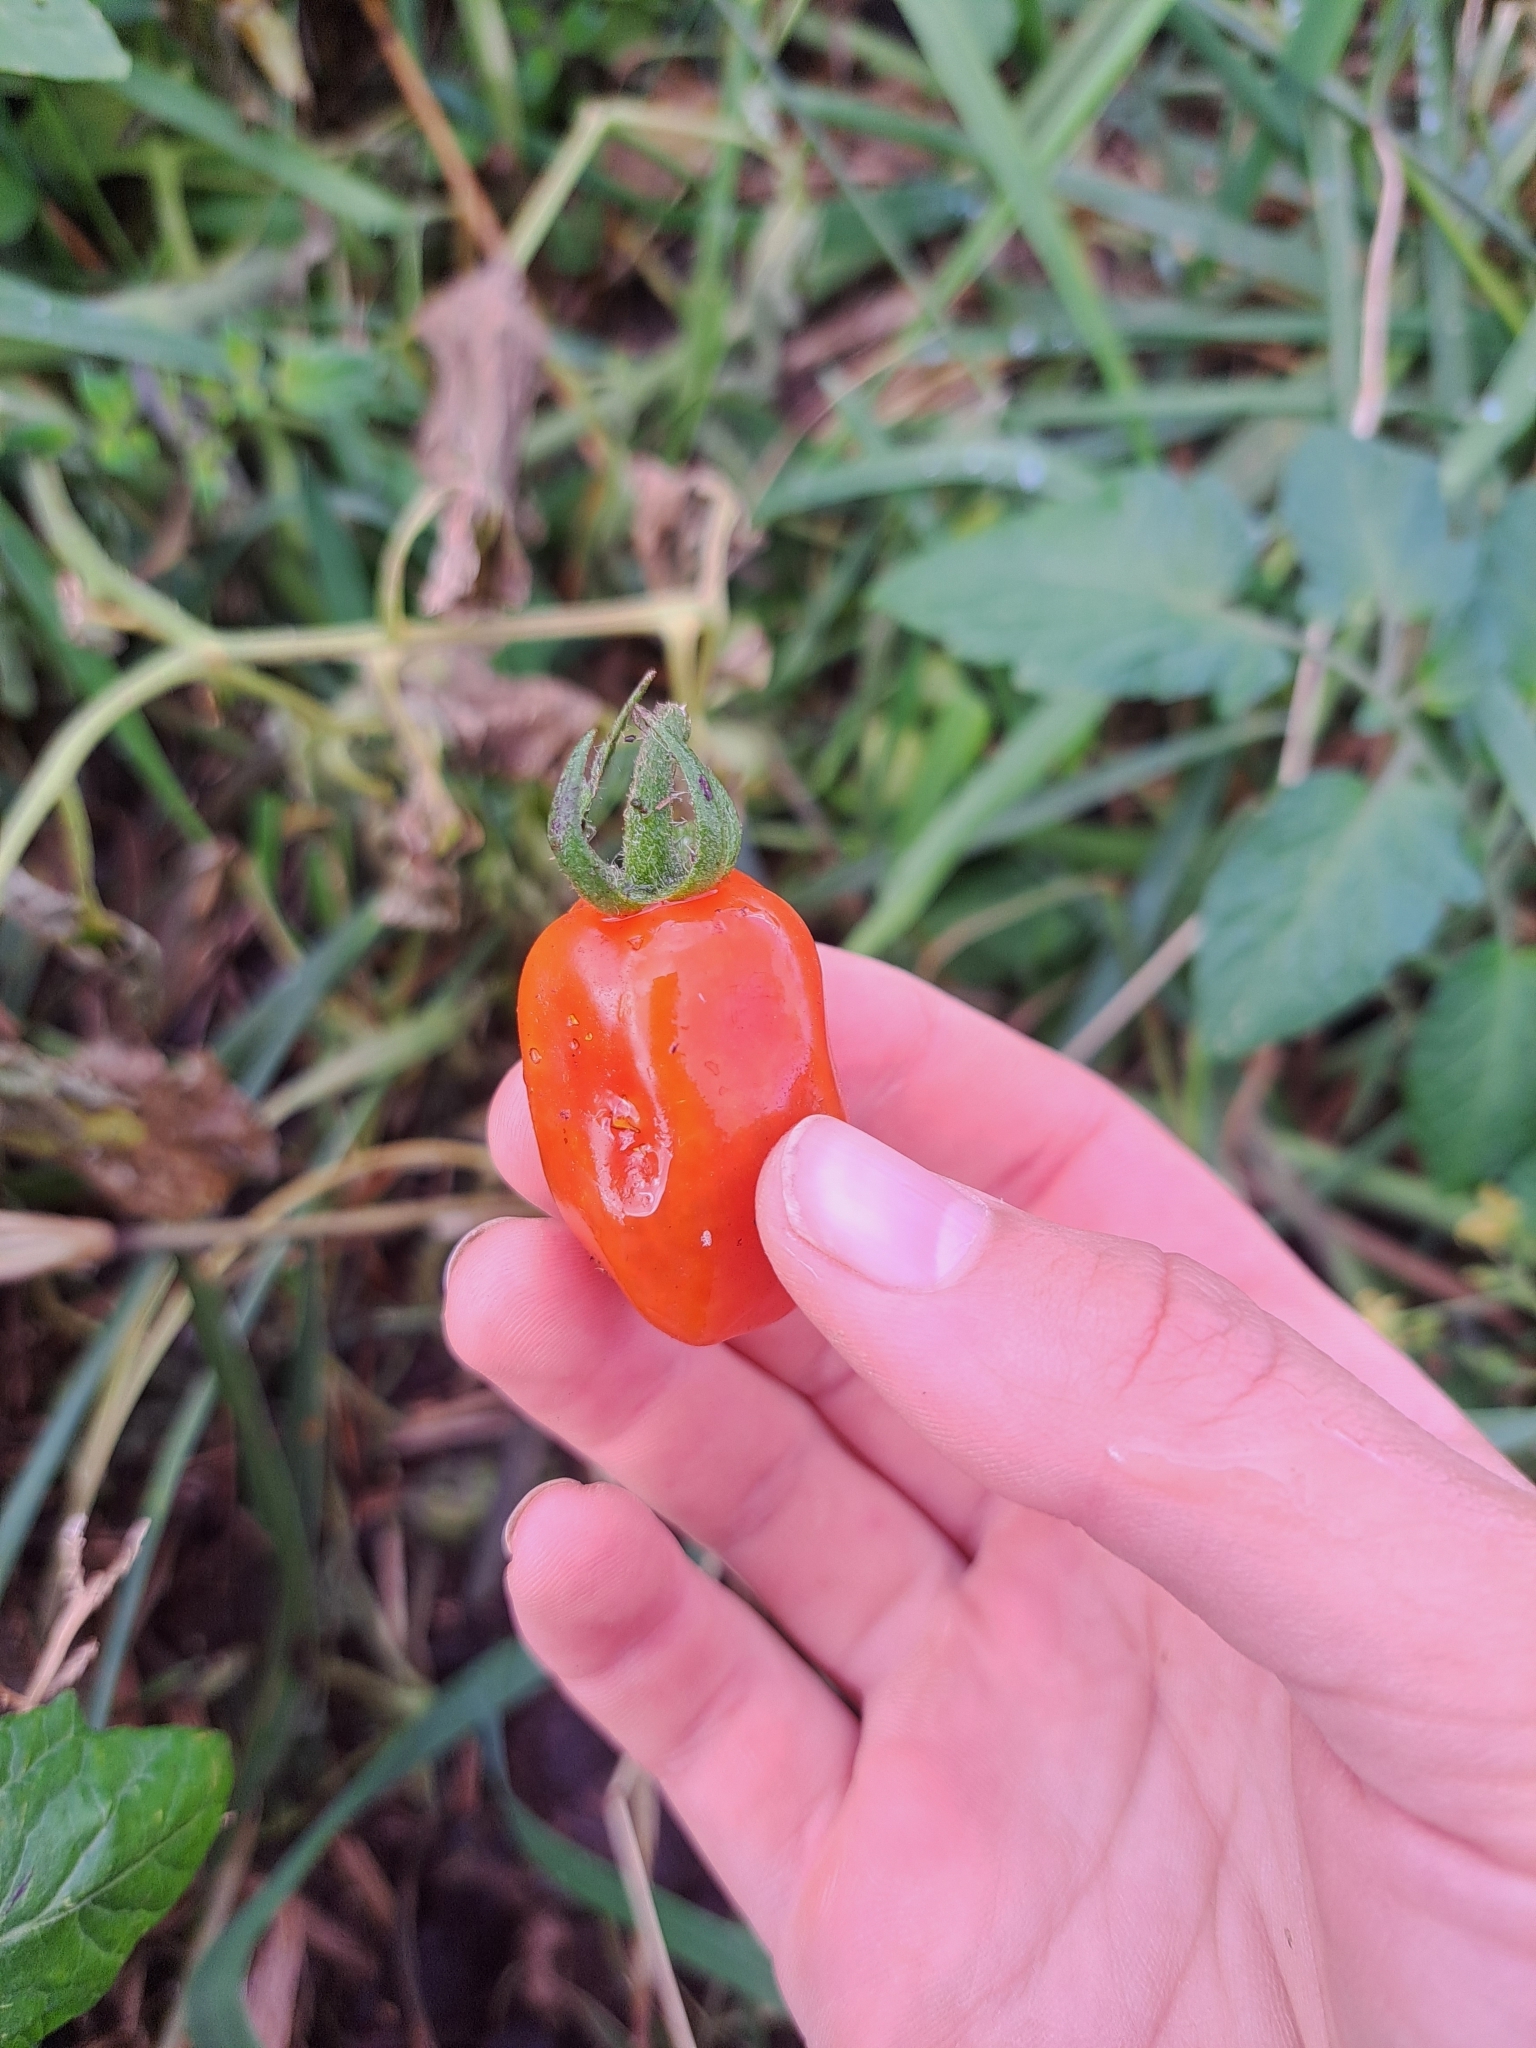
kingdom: Plantae
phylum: Tracheophyta
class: Magnoliopsida
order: Solanales
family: Solanaceae
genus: Solanum
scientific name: Solanum lycopersicum
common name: Garden tomato
